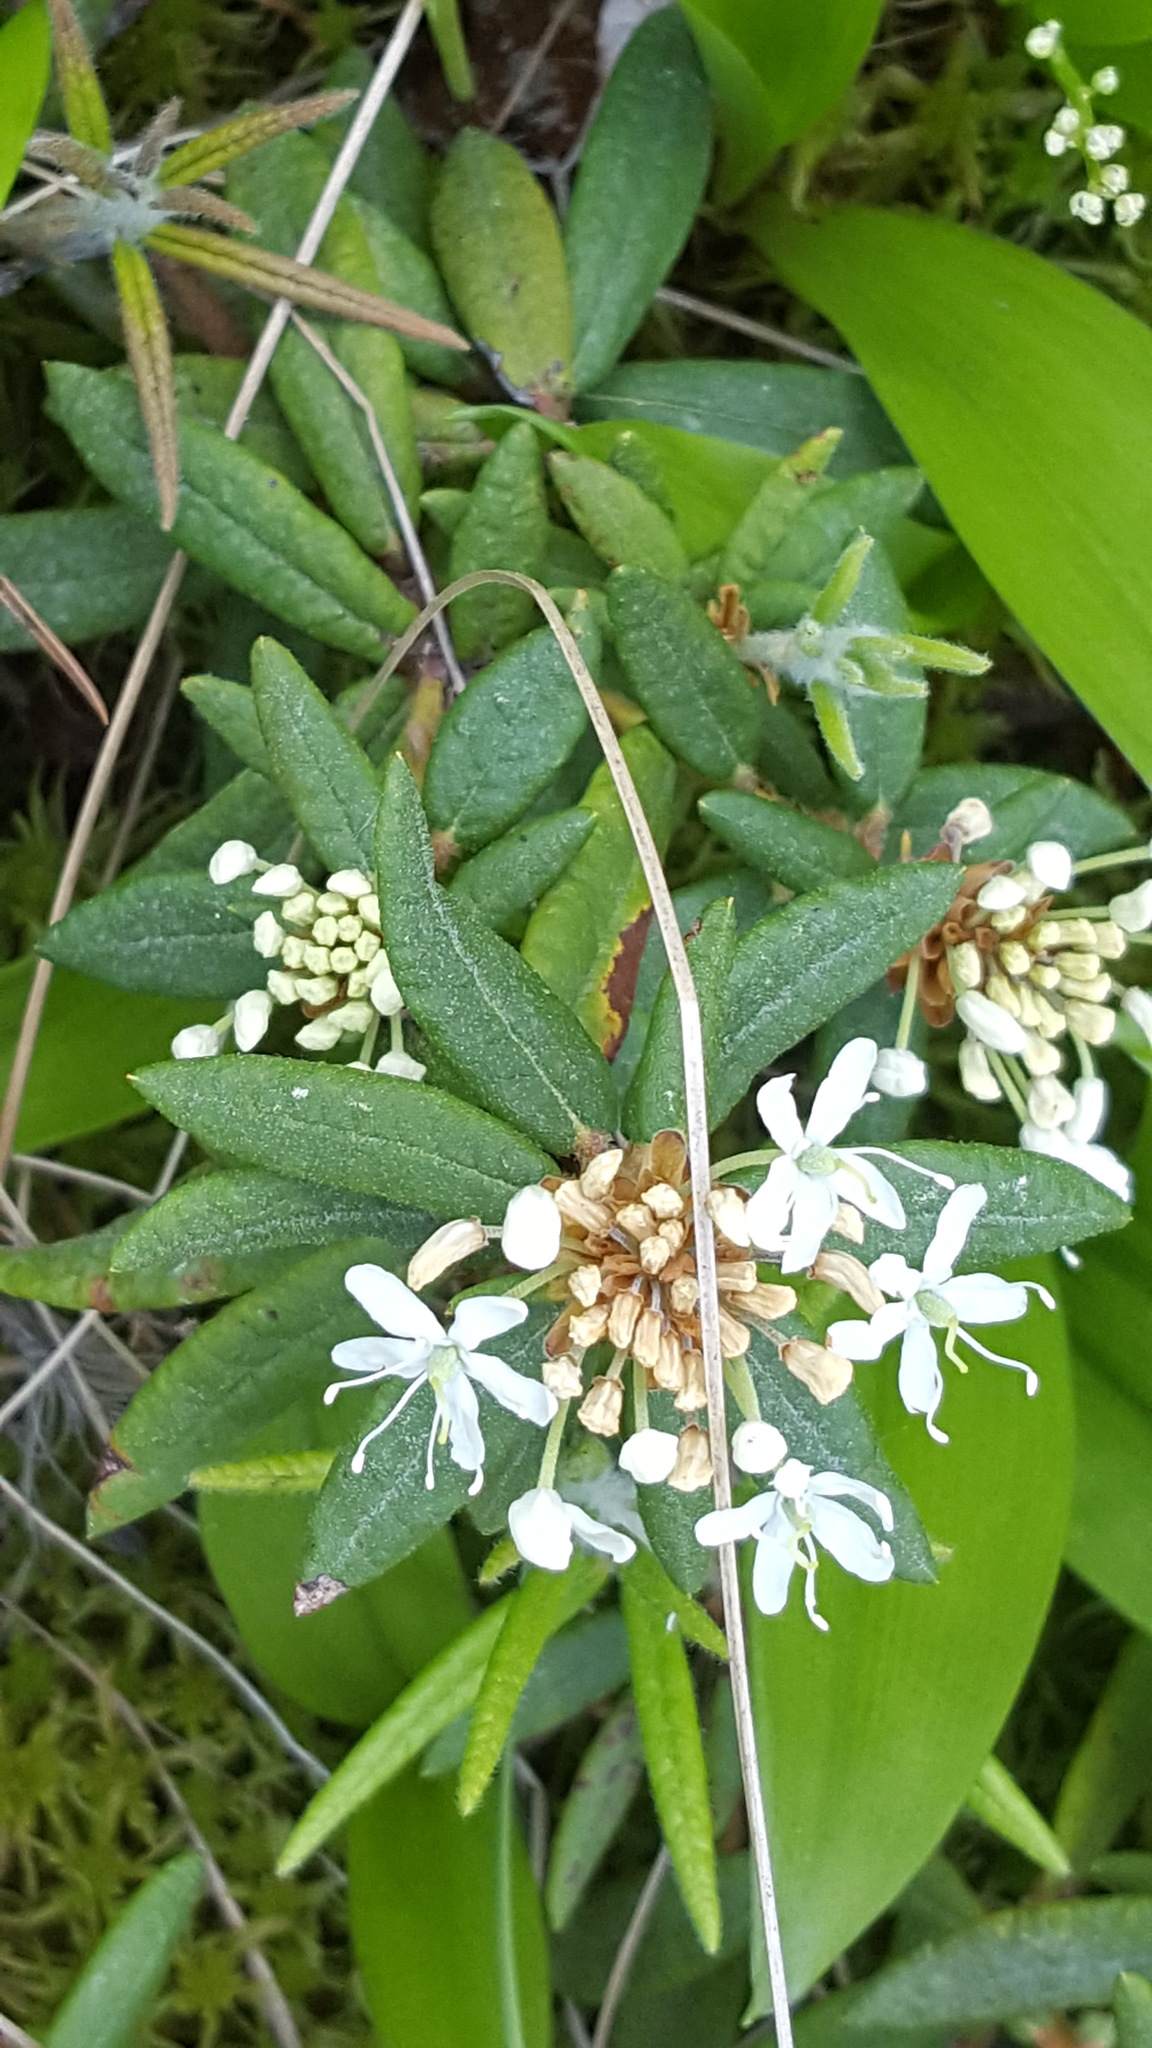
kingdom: Plantae
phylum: Tracheophyta
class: Magnoliopsida
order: Ericales
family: Ericaceae
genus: Rhododendron
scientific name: Rhododendron groenlandicum
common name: Bog labrador tea
